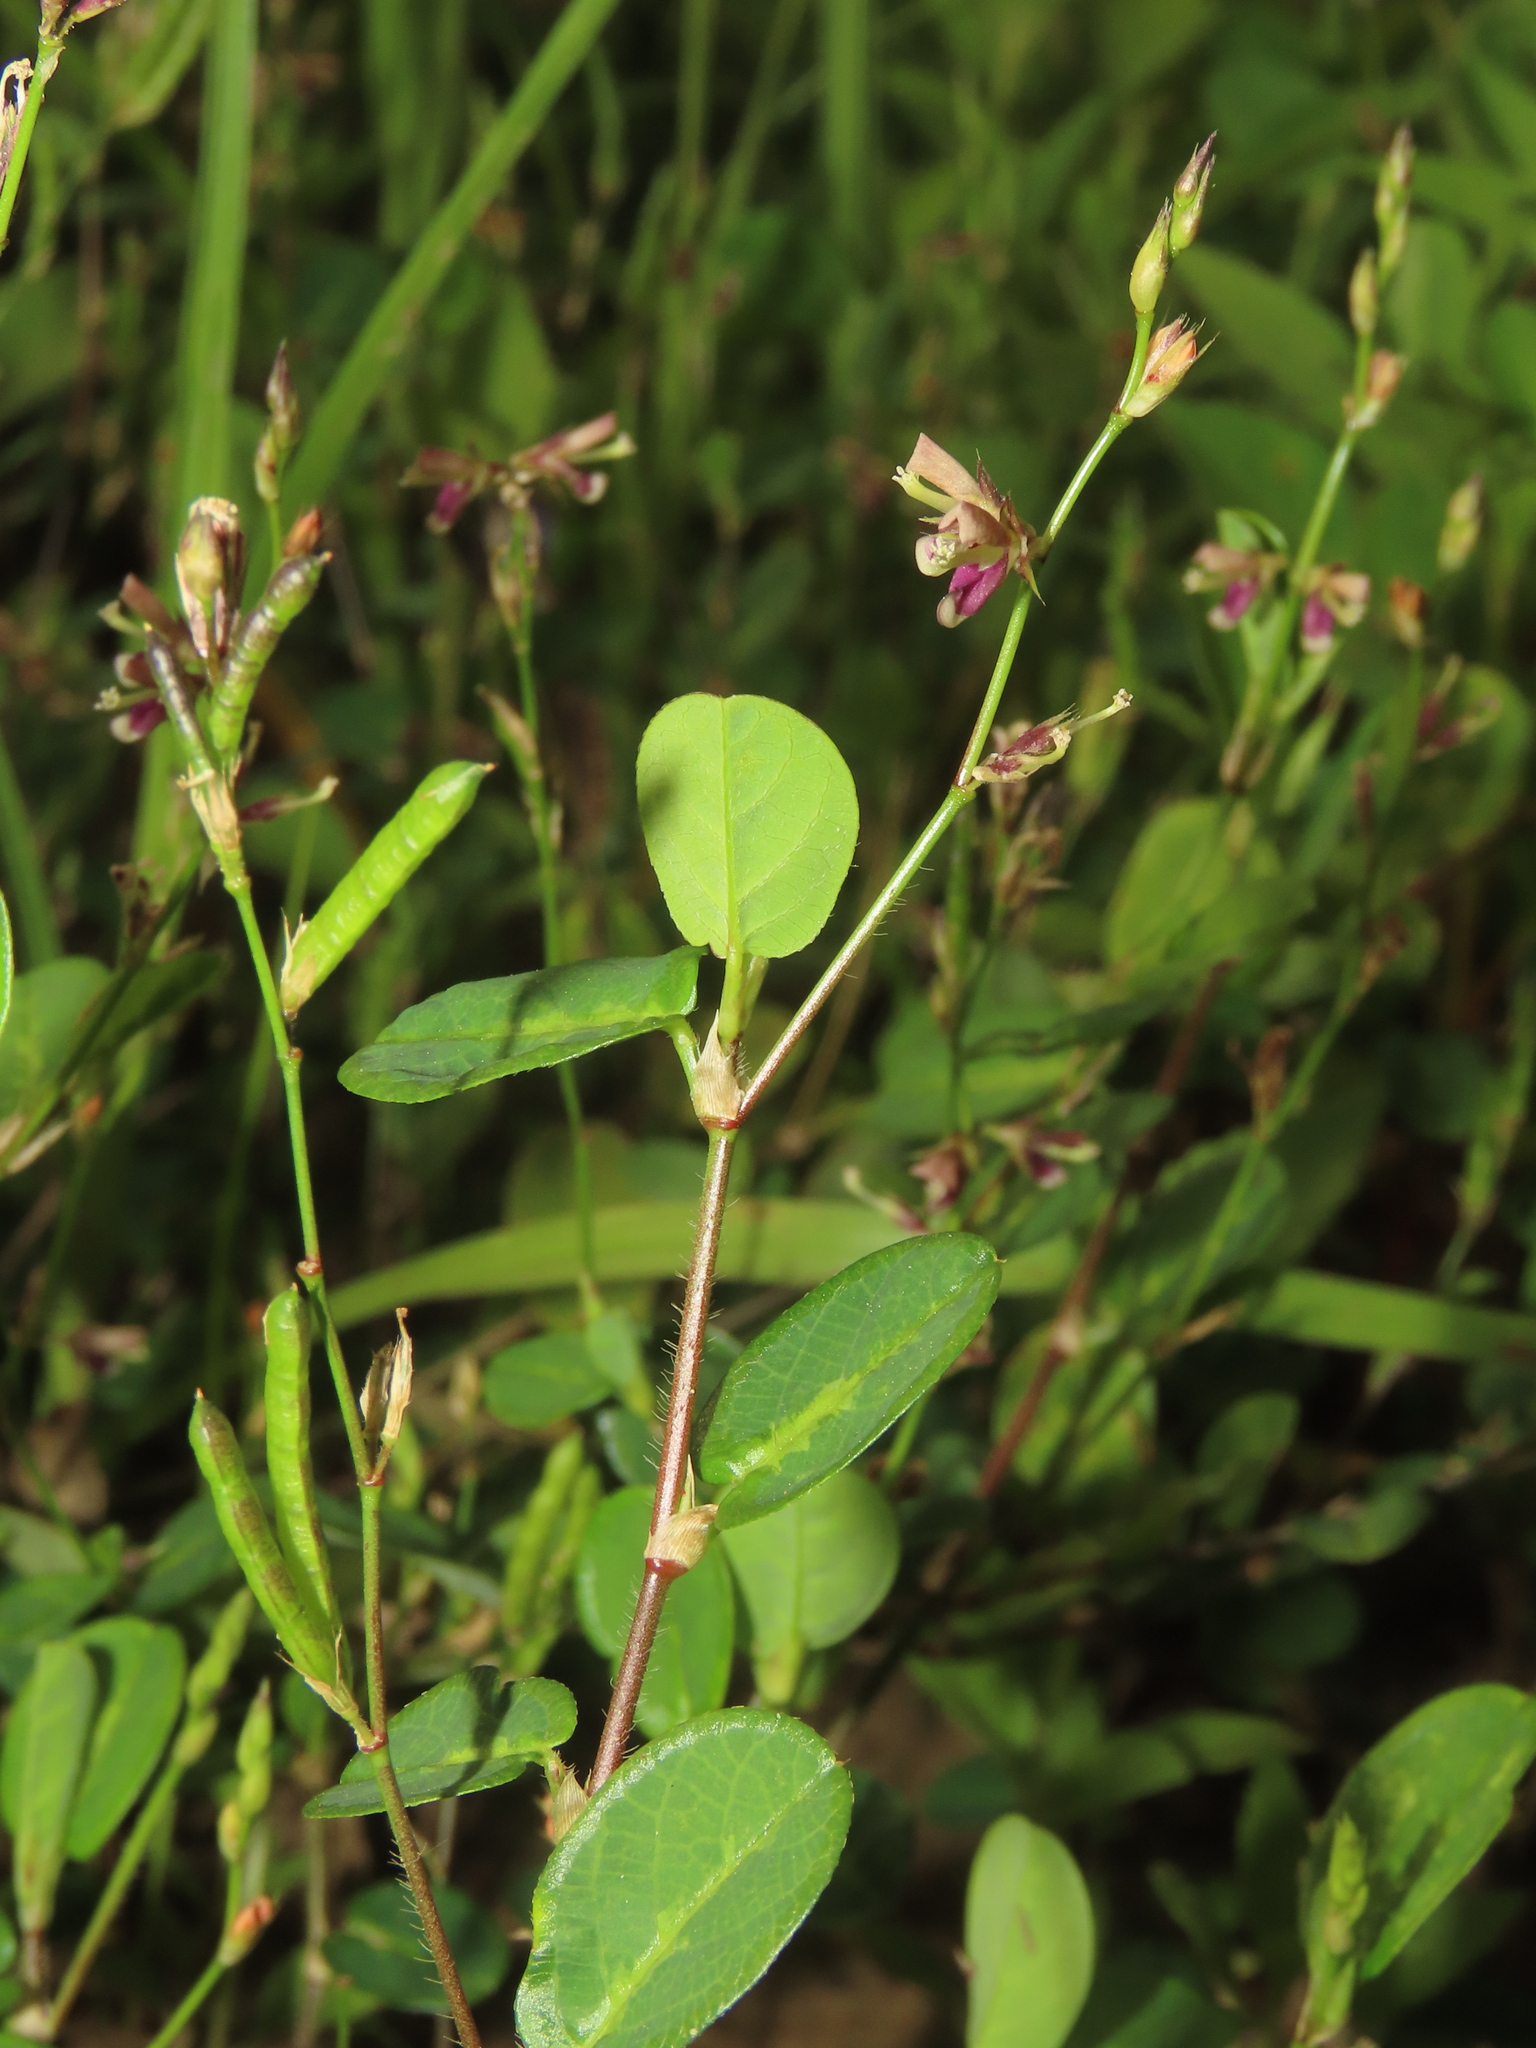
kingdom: Plantae
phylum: Tracheophyta
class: Magnoliopsida
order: Fabales
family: Fabaceae
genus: Alysicarpus
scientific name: Alysicarpus ovalifolius
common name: Alyce clover
